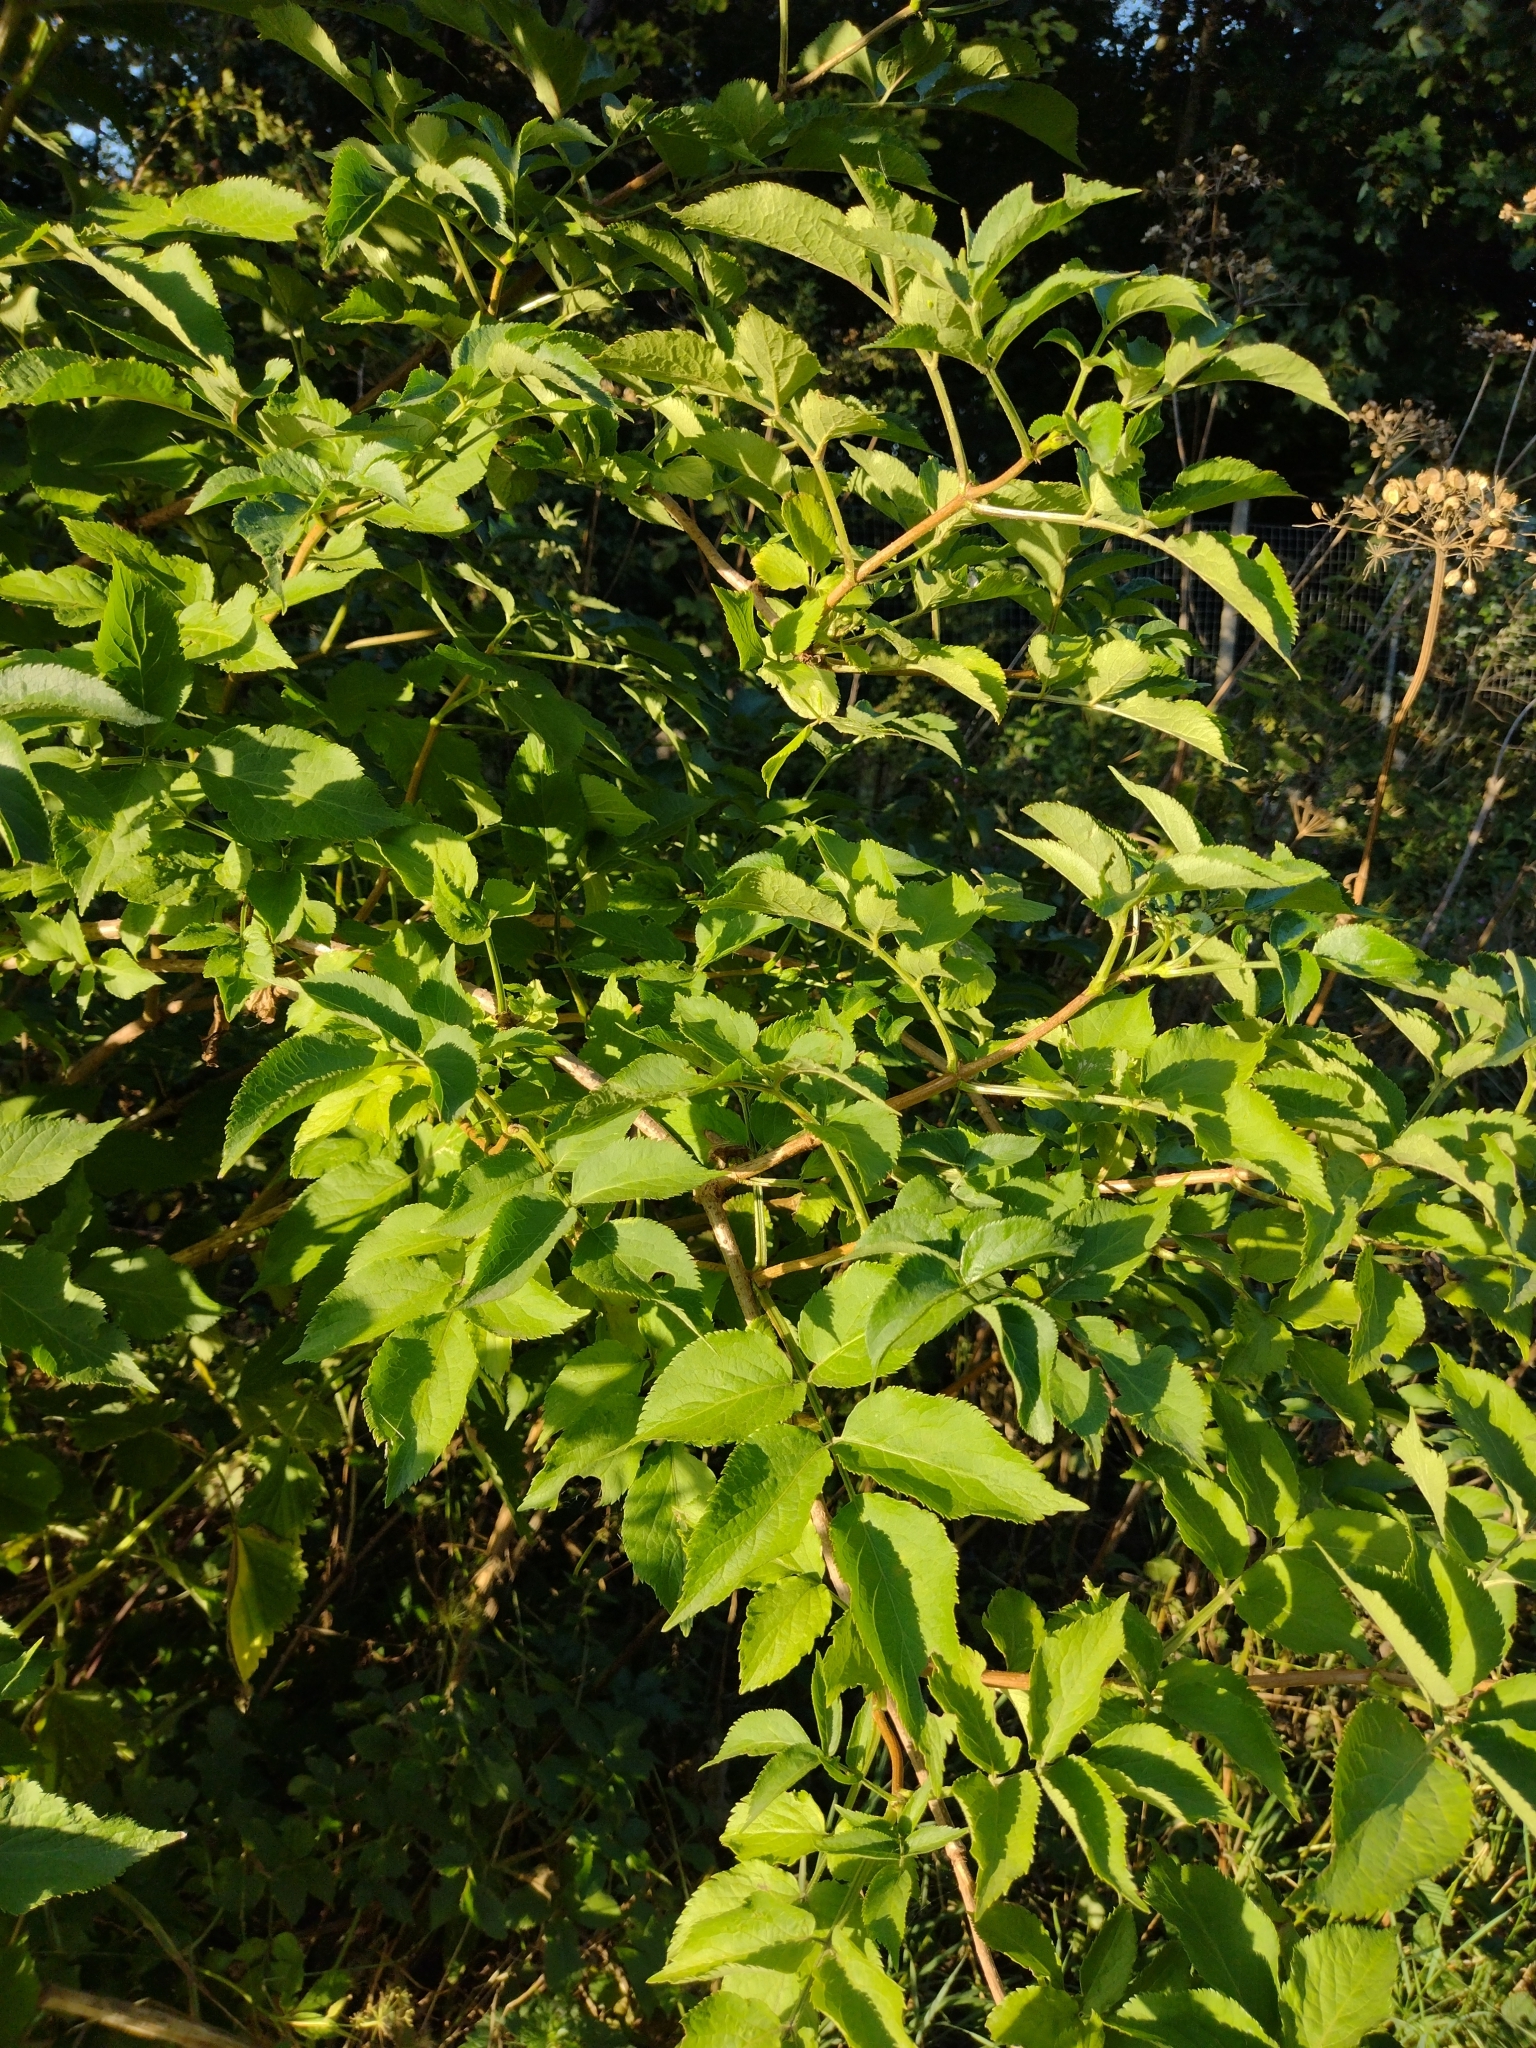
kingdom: Plantae
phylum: Tracheophyta
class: Magnoliopsida
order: Dipsacales
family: Viburnaceae
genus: Sambucus
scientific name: Sambucus nigra
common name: Elder
